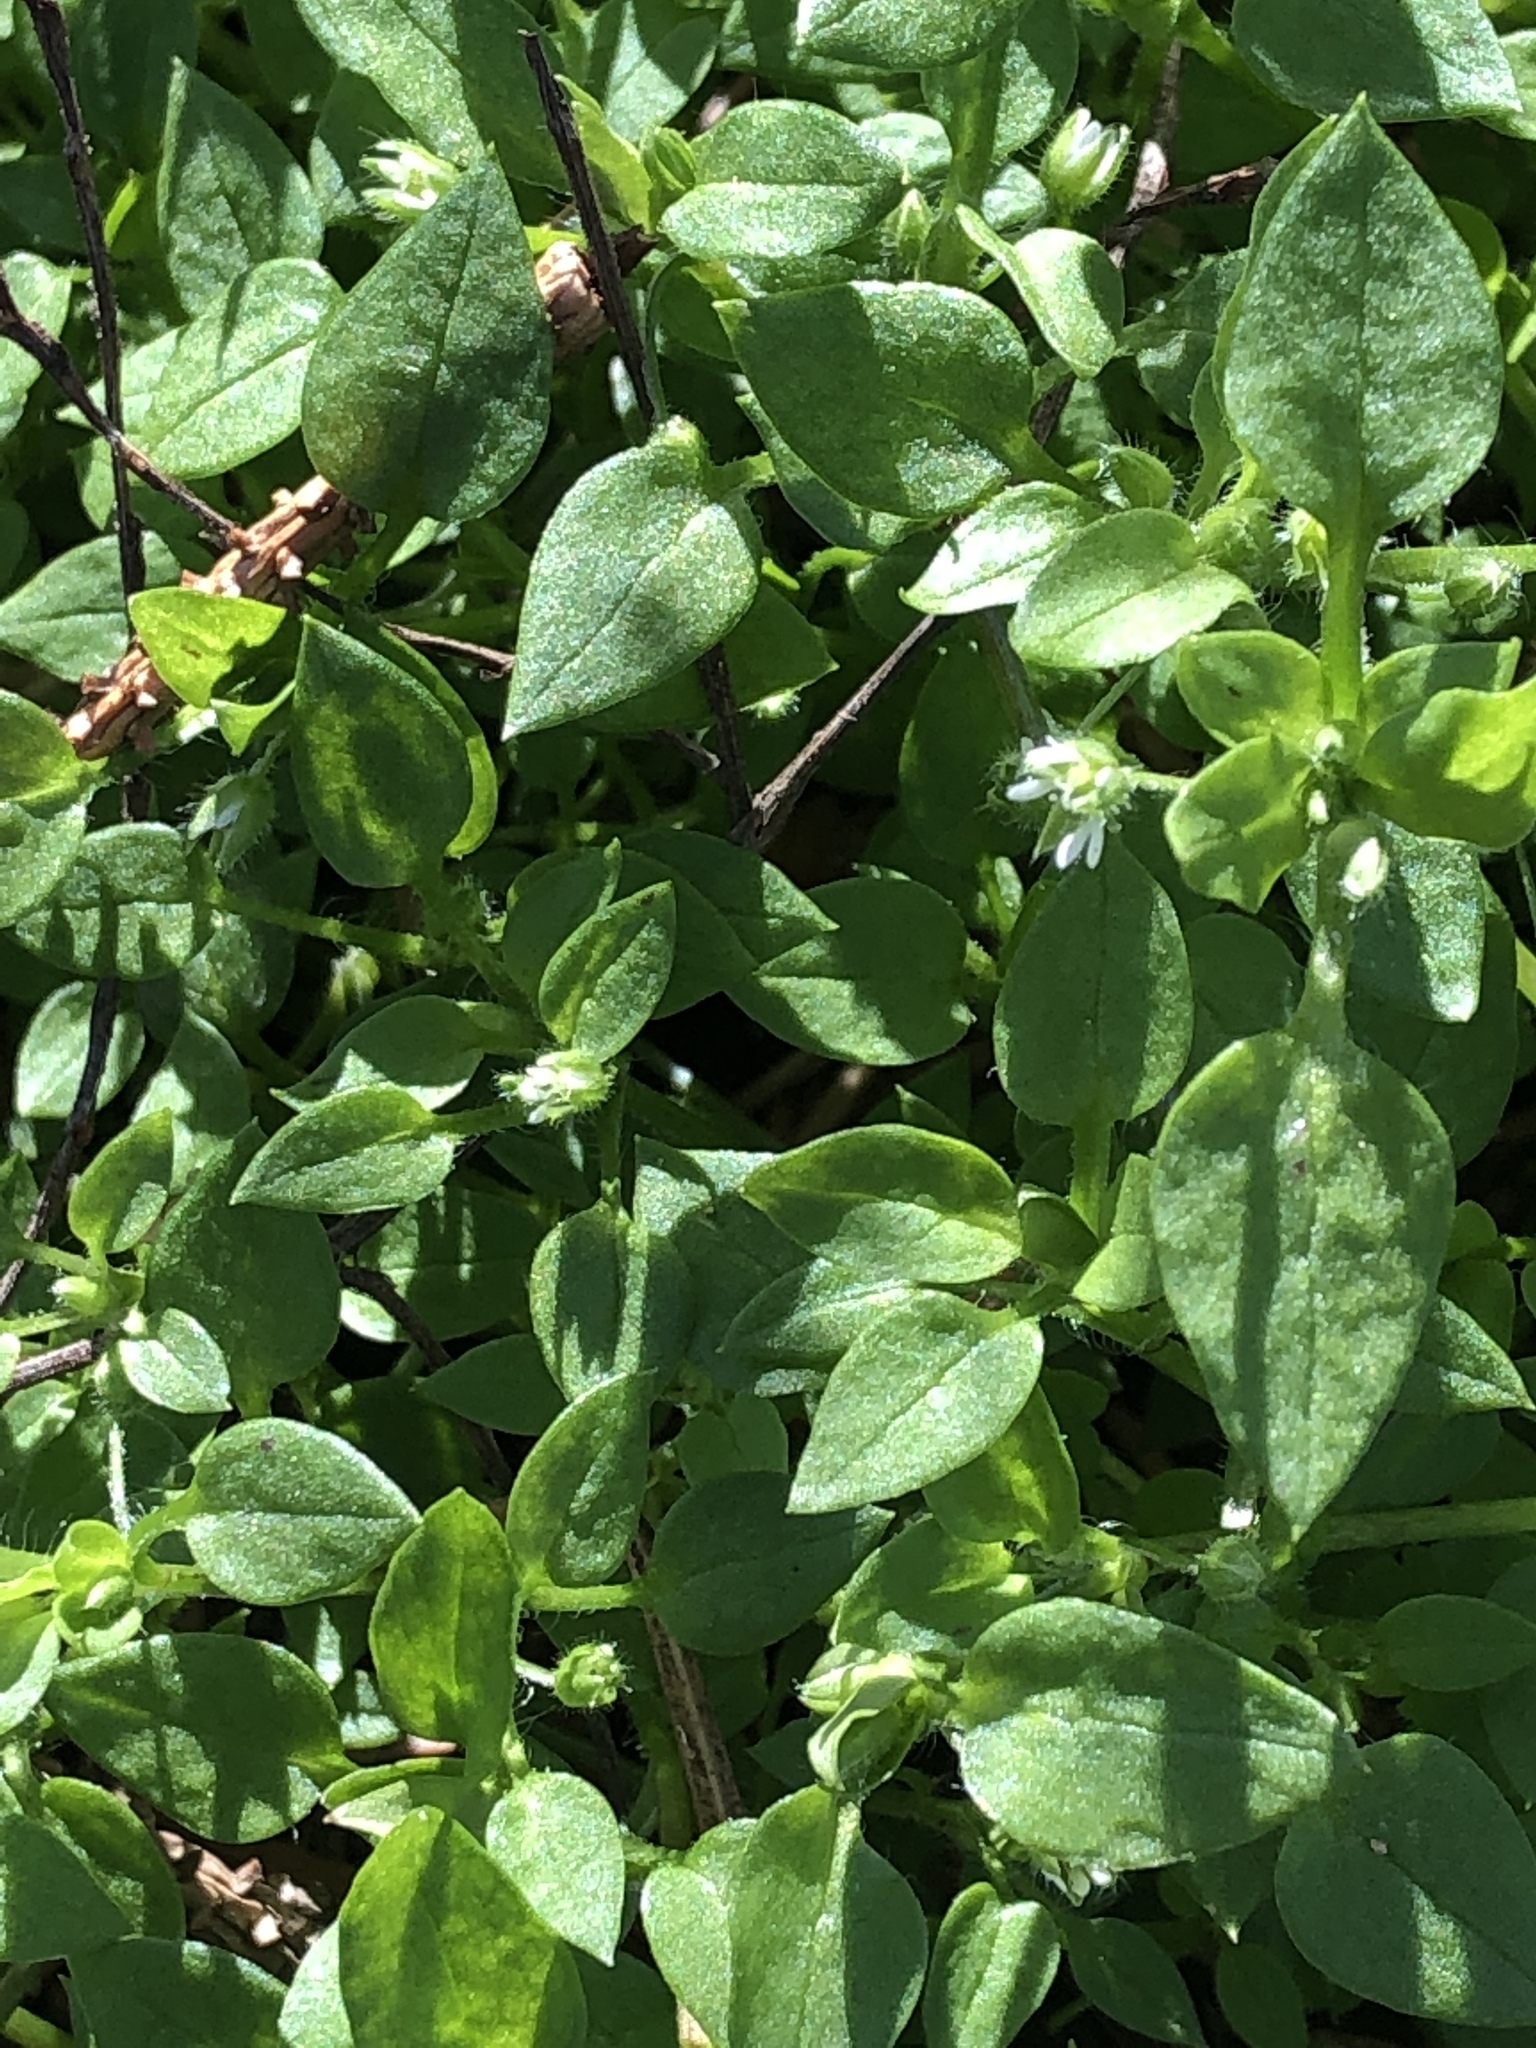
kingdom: Plantae
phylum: Tracheophyta
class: Magnoliopsida
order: Caryophyllales
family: Caryophyllaceae
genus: Stellaria
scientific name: Stellaria media
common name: Common chickweed
